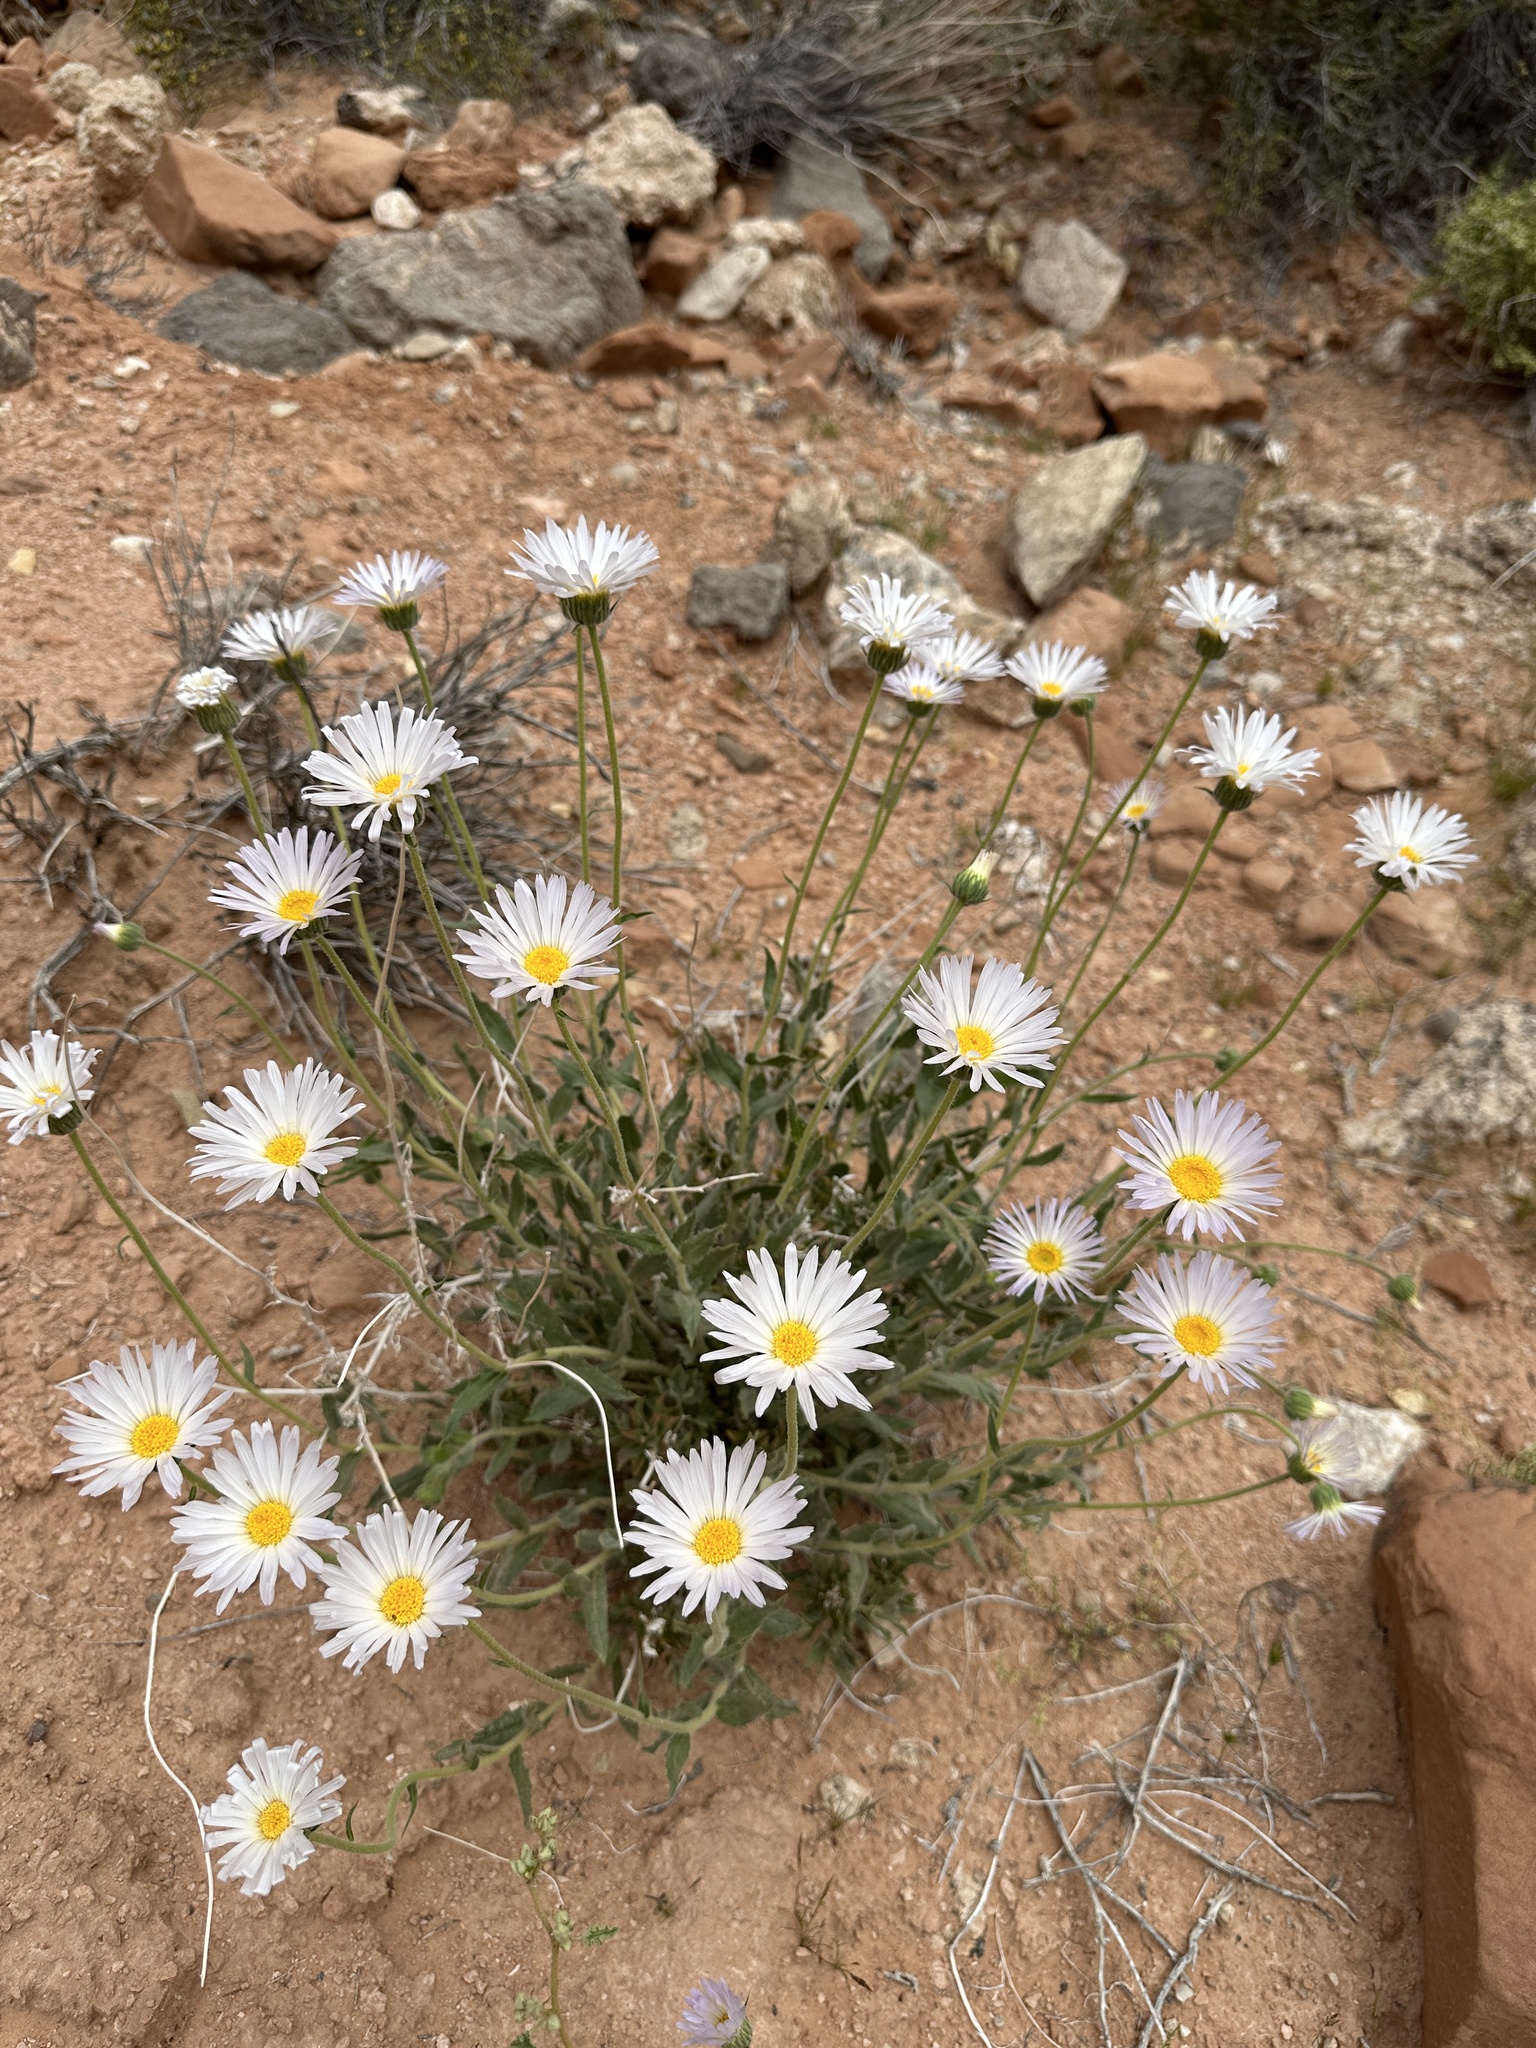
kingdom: Plantae
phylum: Tracheophyta
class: Magnoliopsida
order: Asterales
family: Asteraceae
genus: Xylorhiza
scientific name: Xylorhiza tortifolia
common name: Hurt-leaf woody-aster
